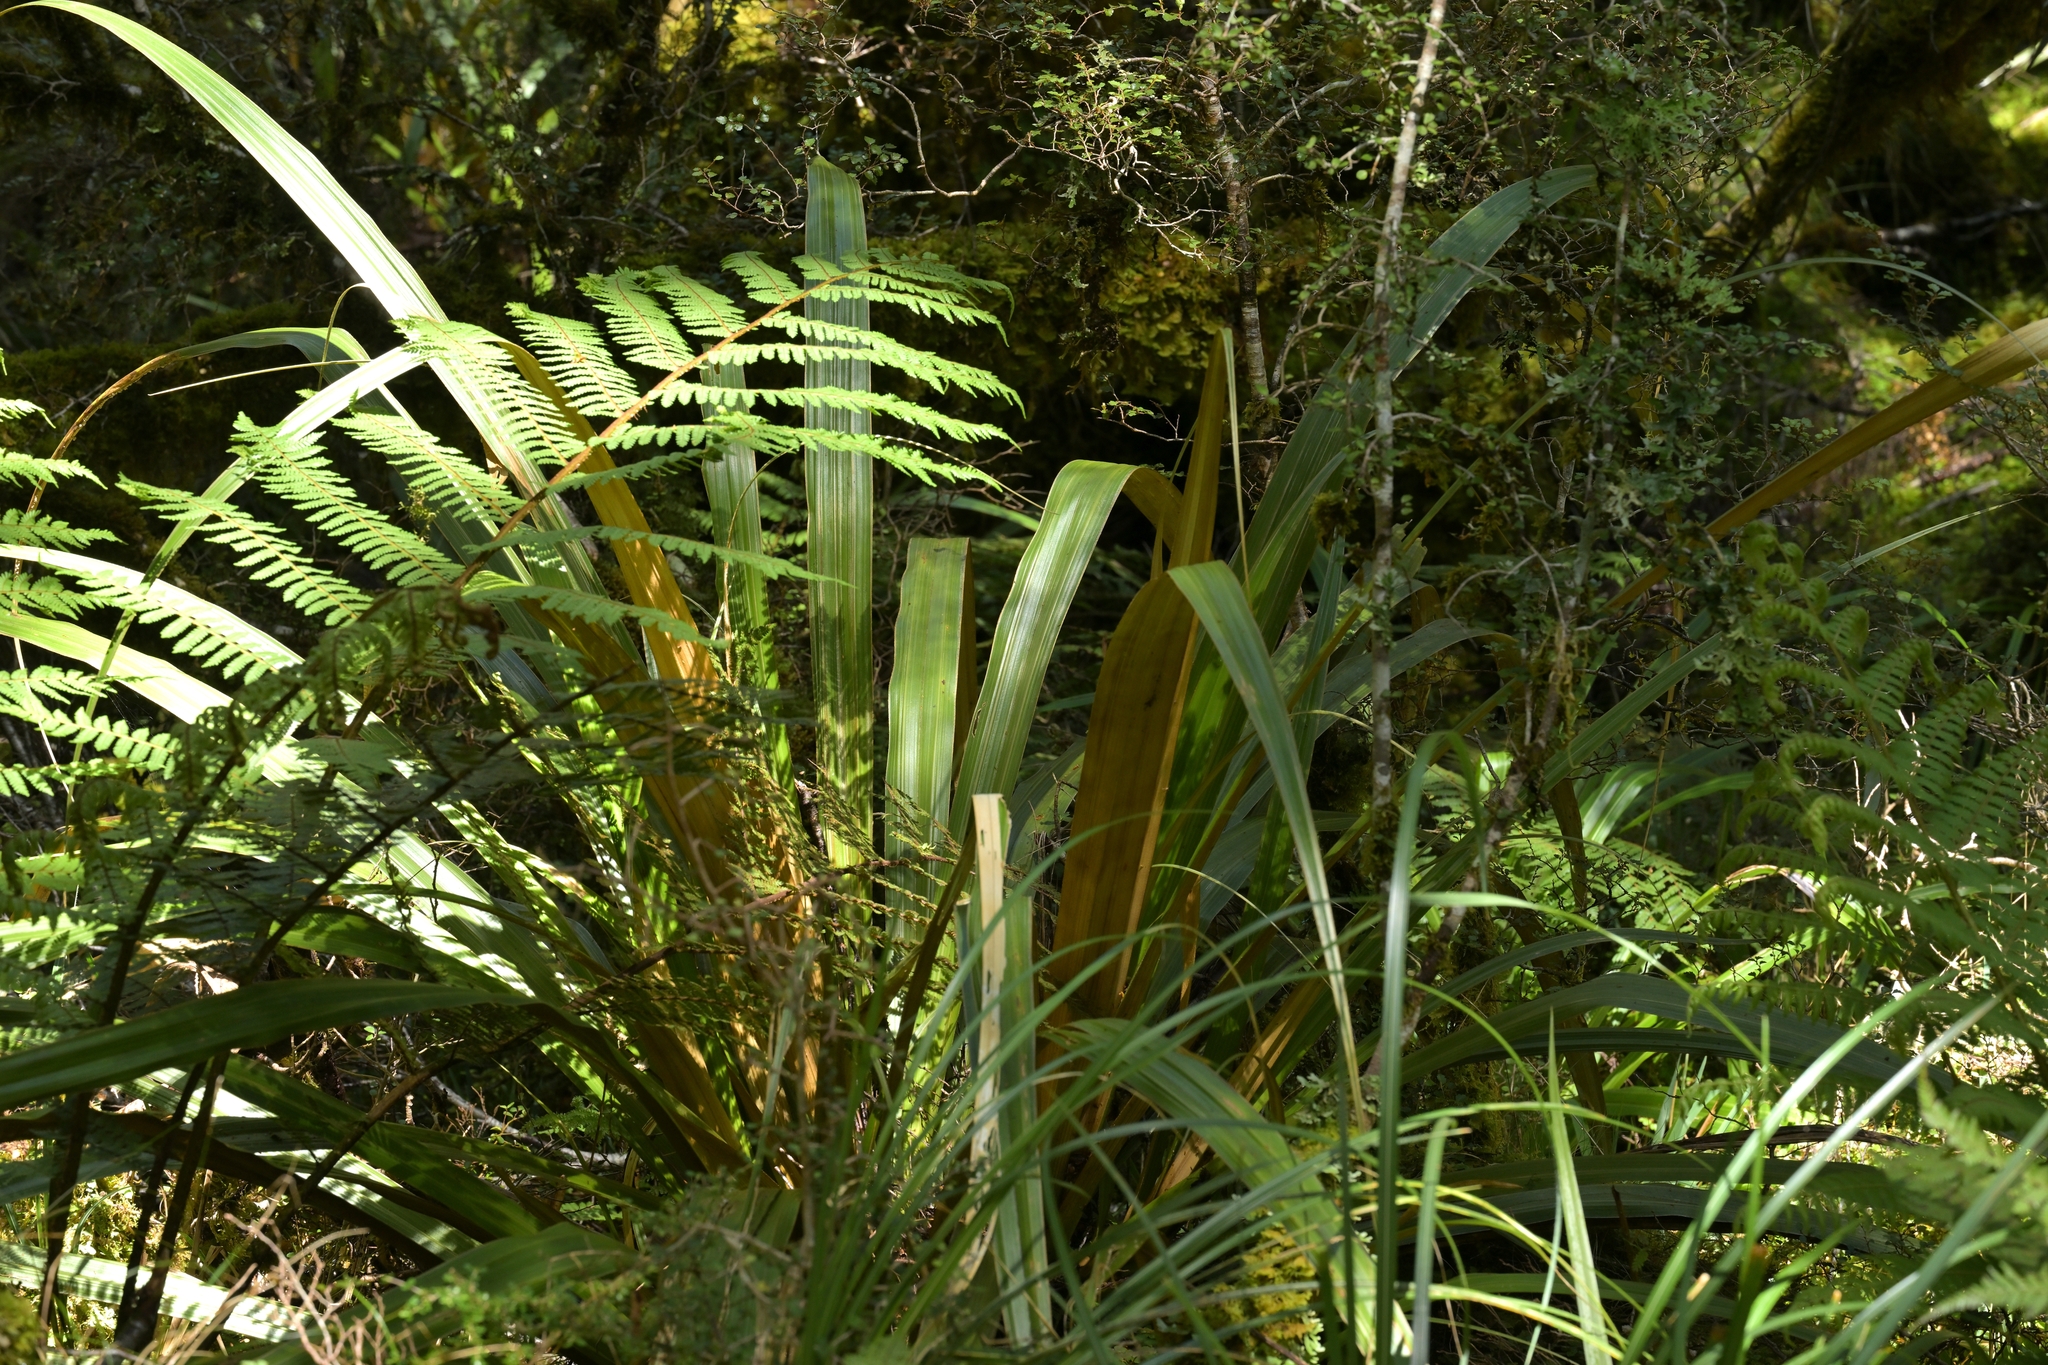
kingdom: Plantae
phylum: Tracheophyta
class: Liliopsida
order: Asparagales
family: Asteliaceae
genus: Astelia
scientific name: Astelia nivicola
